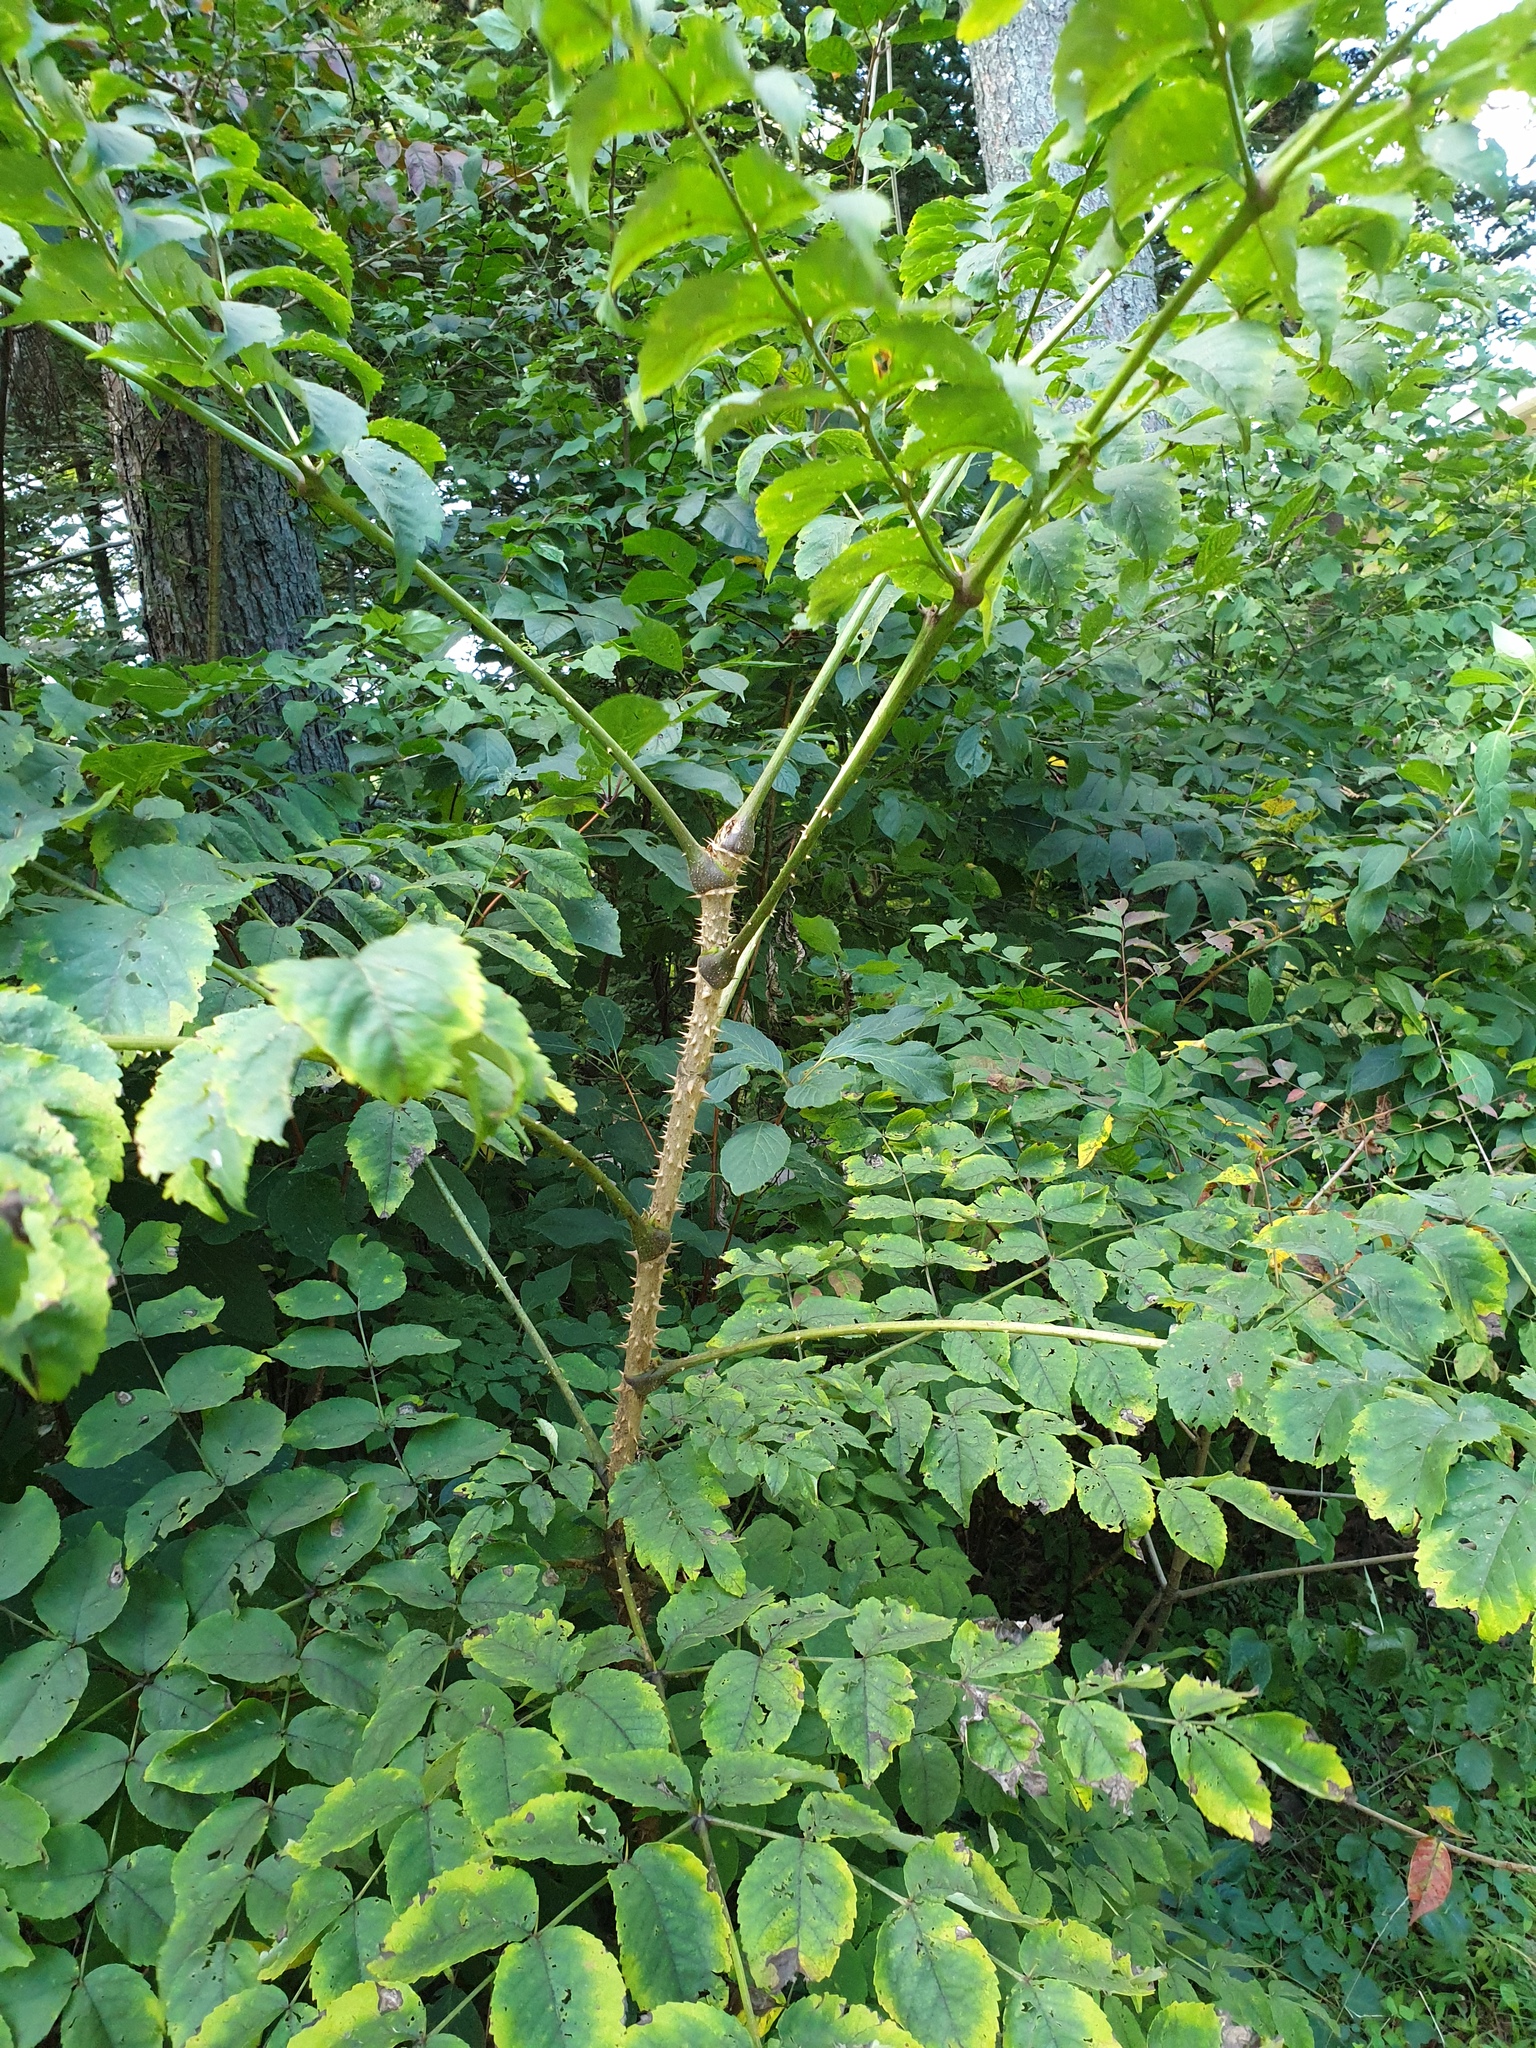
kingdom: Plantae
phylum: Tracheophyta
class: Magnoliopsida
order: Apiales
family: Araliaceae
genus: Aralia
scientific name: Aralia elata
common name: Japanese angelica-tree
